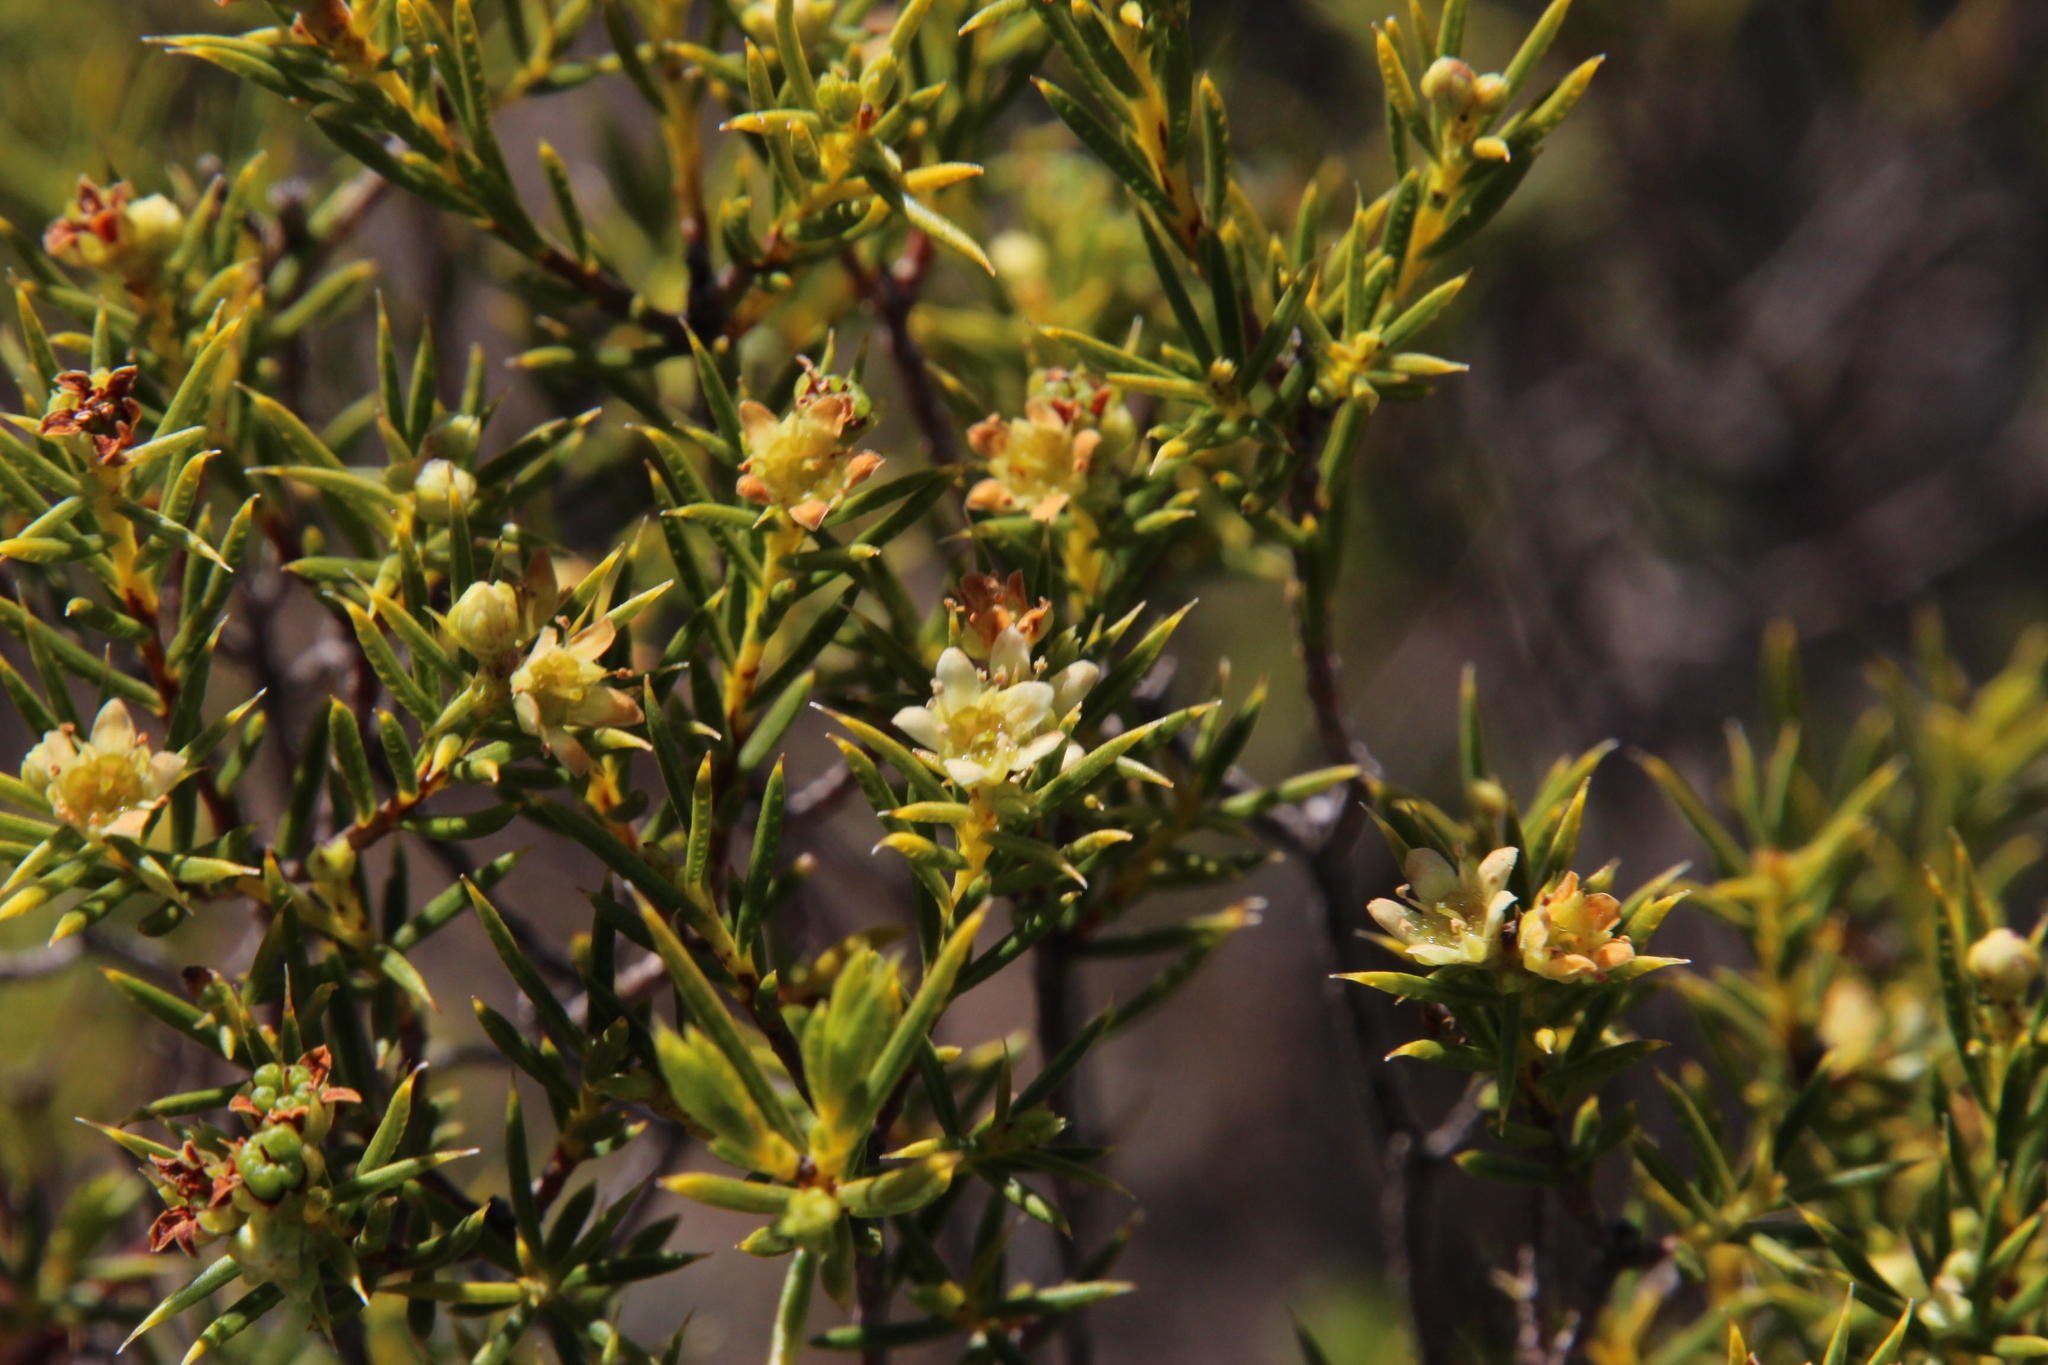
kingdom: Plantae
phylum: Tracheophyta
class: Magnoliopsida
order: Sapindales
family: Rutaceae
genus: Diosma
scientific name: Diosma acmaeophylla
